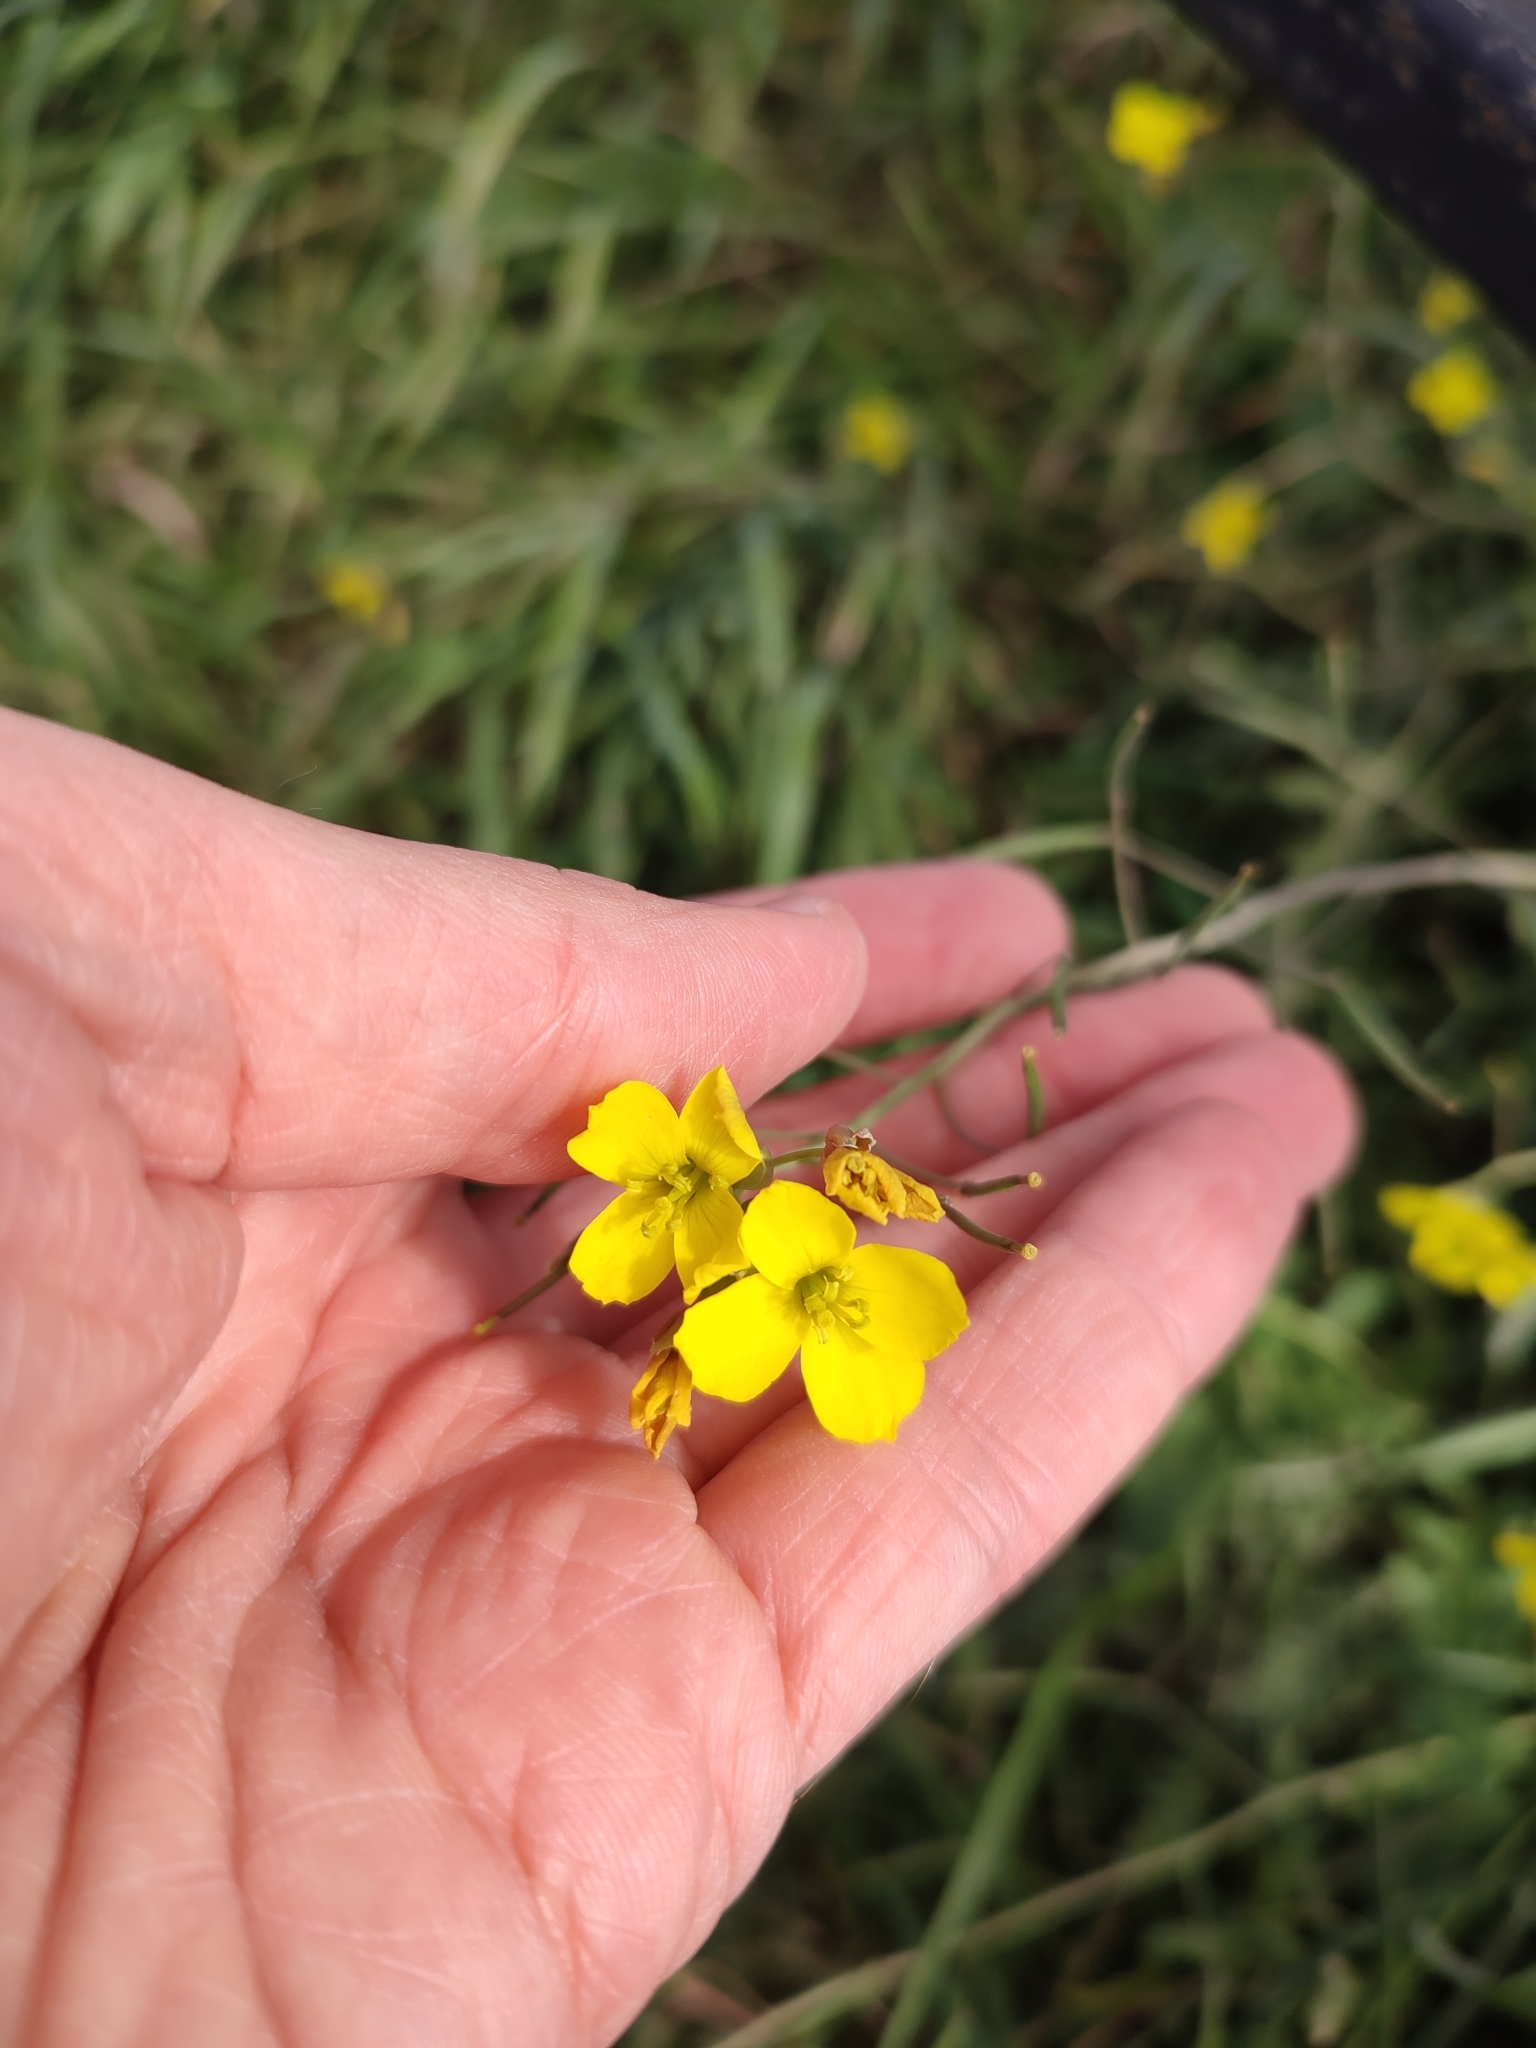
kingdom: Plantae
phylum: Tracheophyta
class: Magnoliopsida
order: Brassicales
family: Brassicaceae
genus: Diplotaxis
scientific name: Diplotaxis tenuifolia
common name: Perennial wall-rocket
